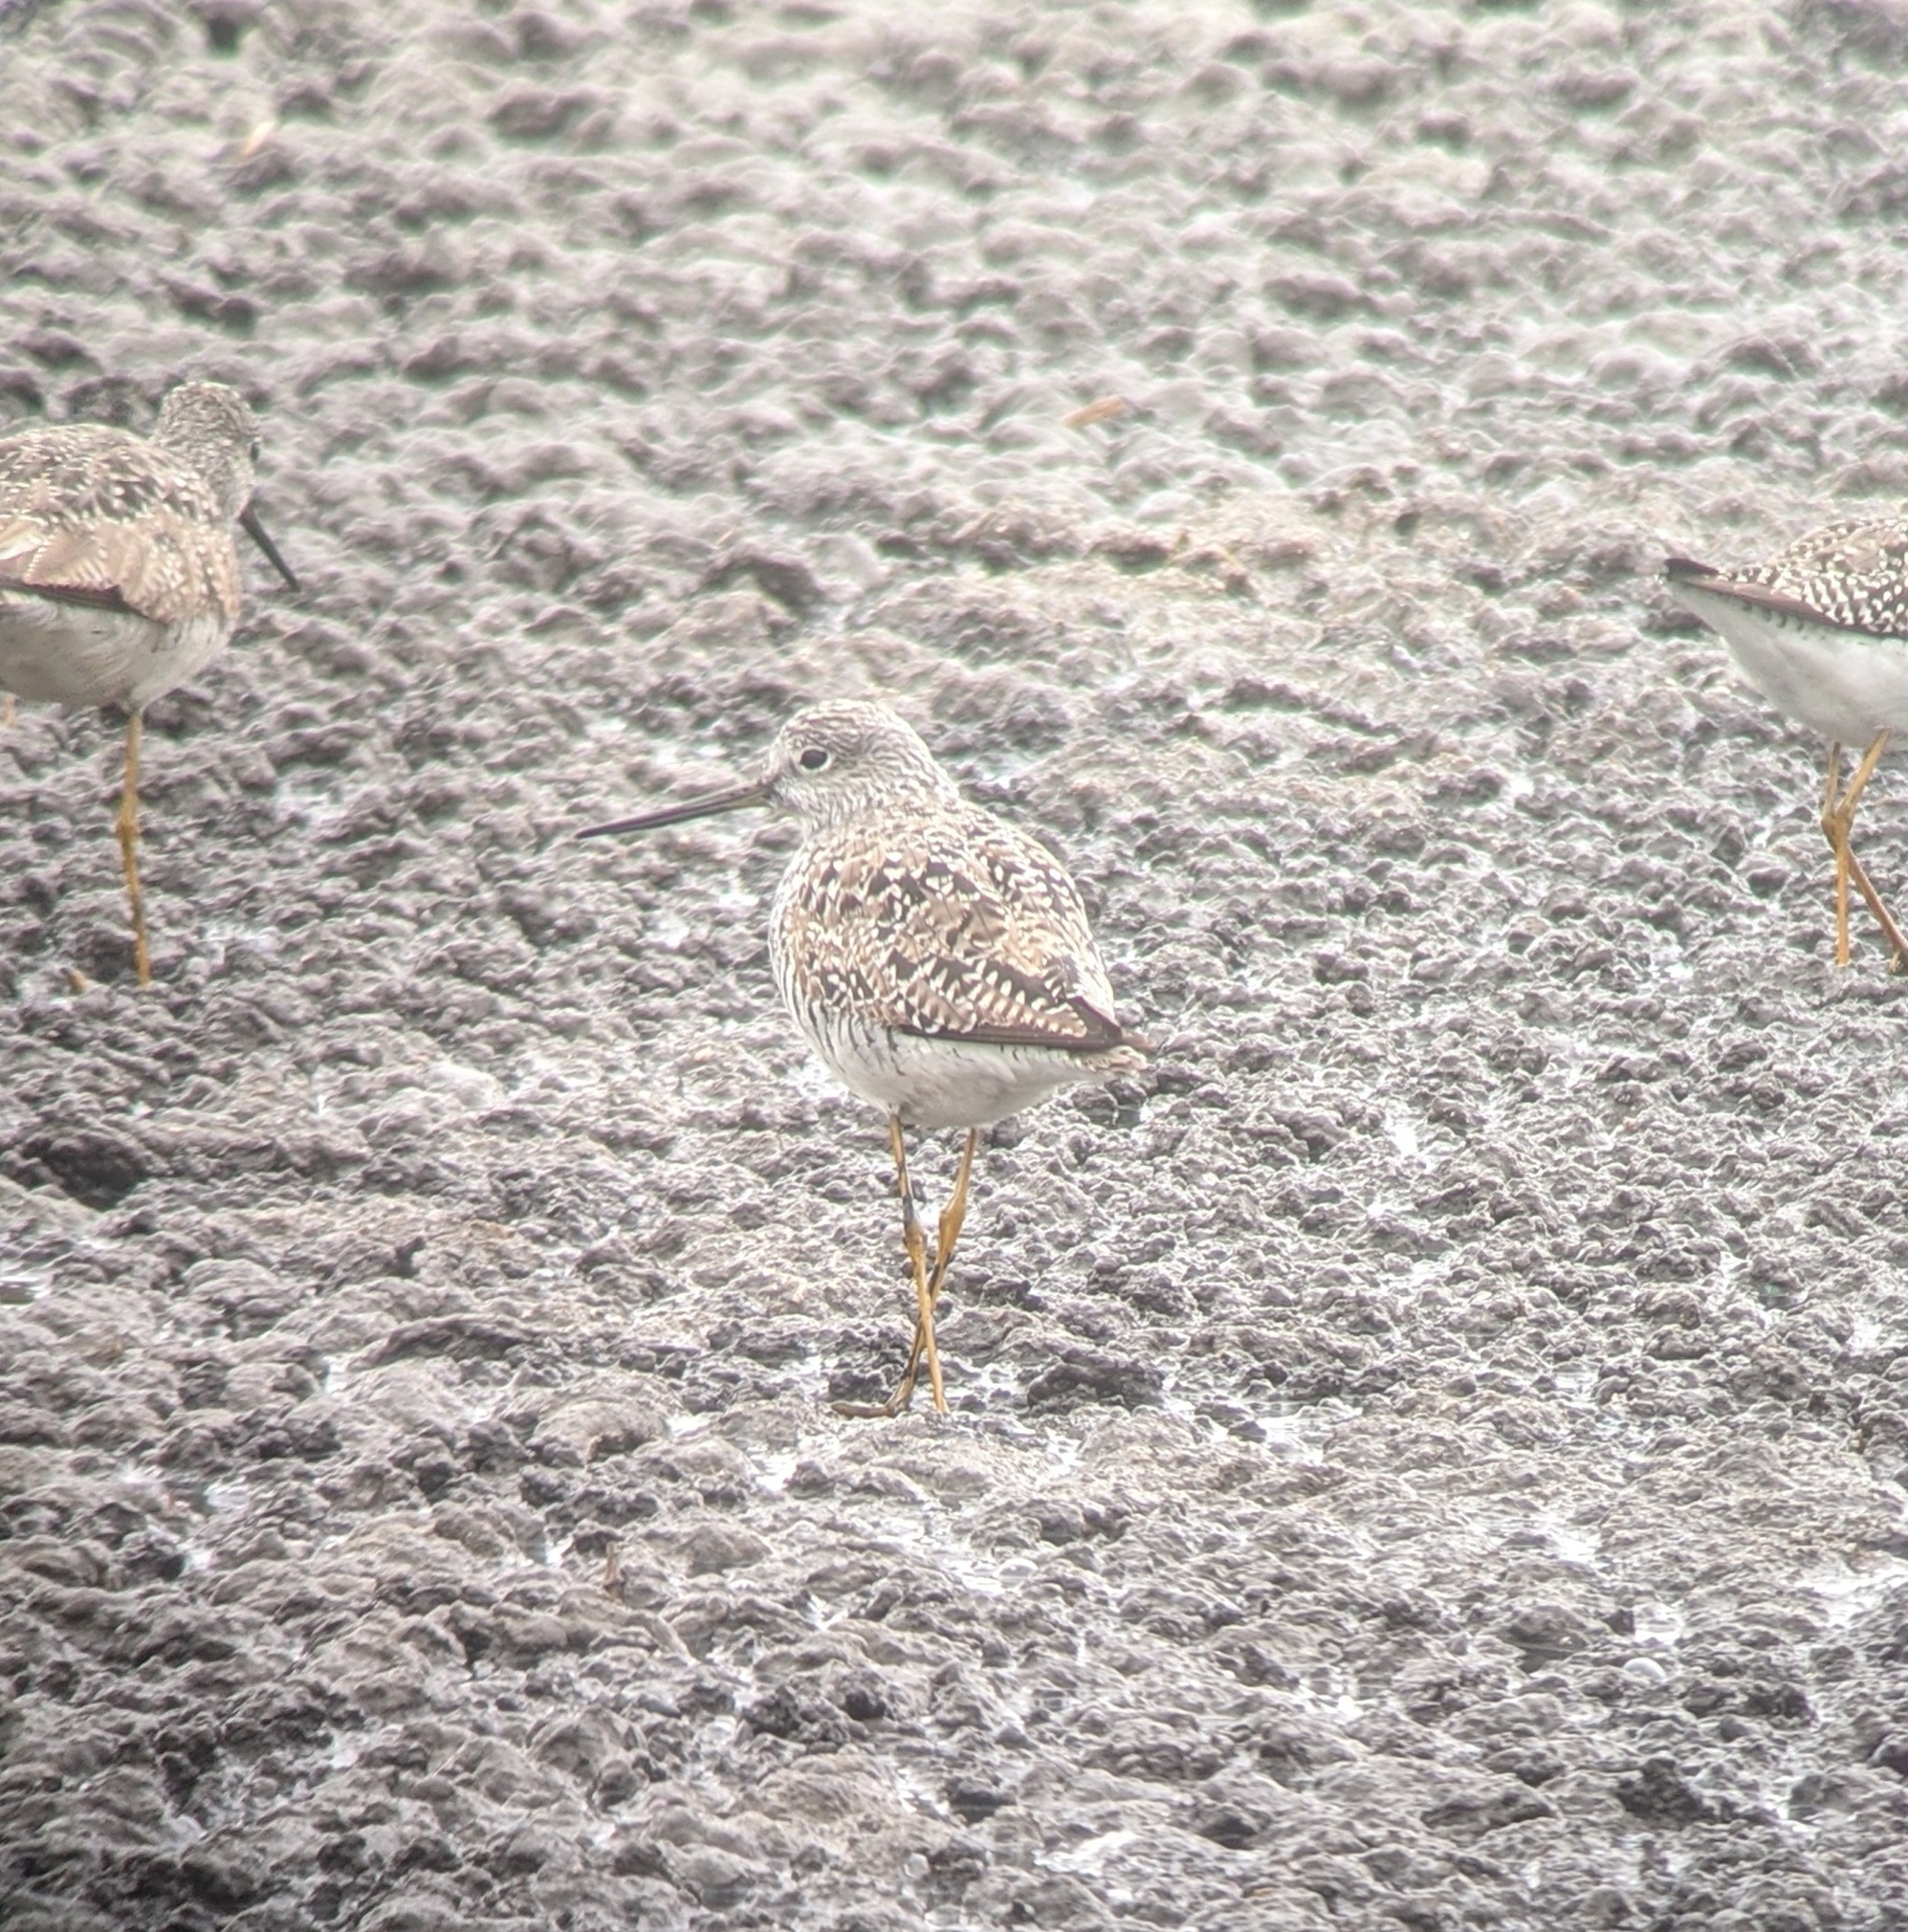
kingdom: Animalia
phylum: Chordata
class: Aves
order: Charadriiformes
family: Scolopacidae
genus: Tringa
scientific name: Tringa melanoleuca
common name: Greater yellowlegs
